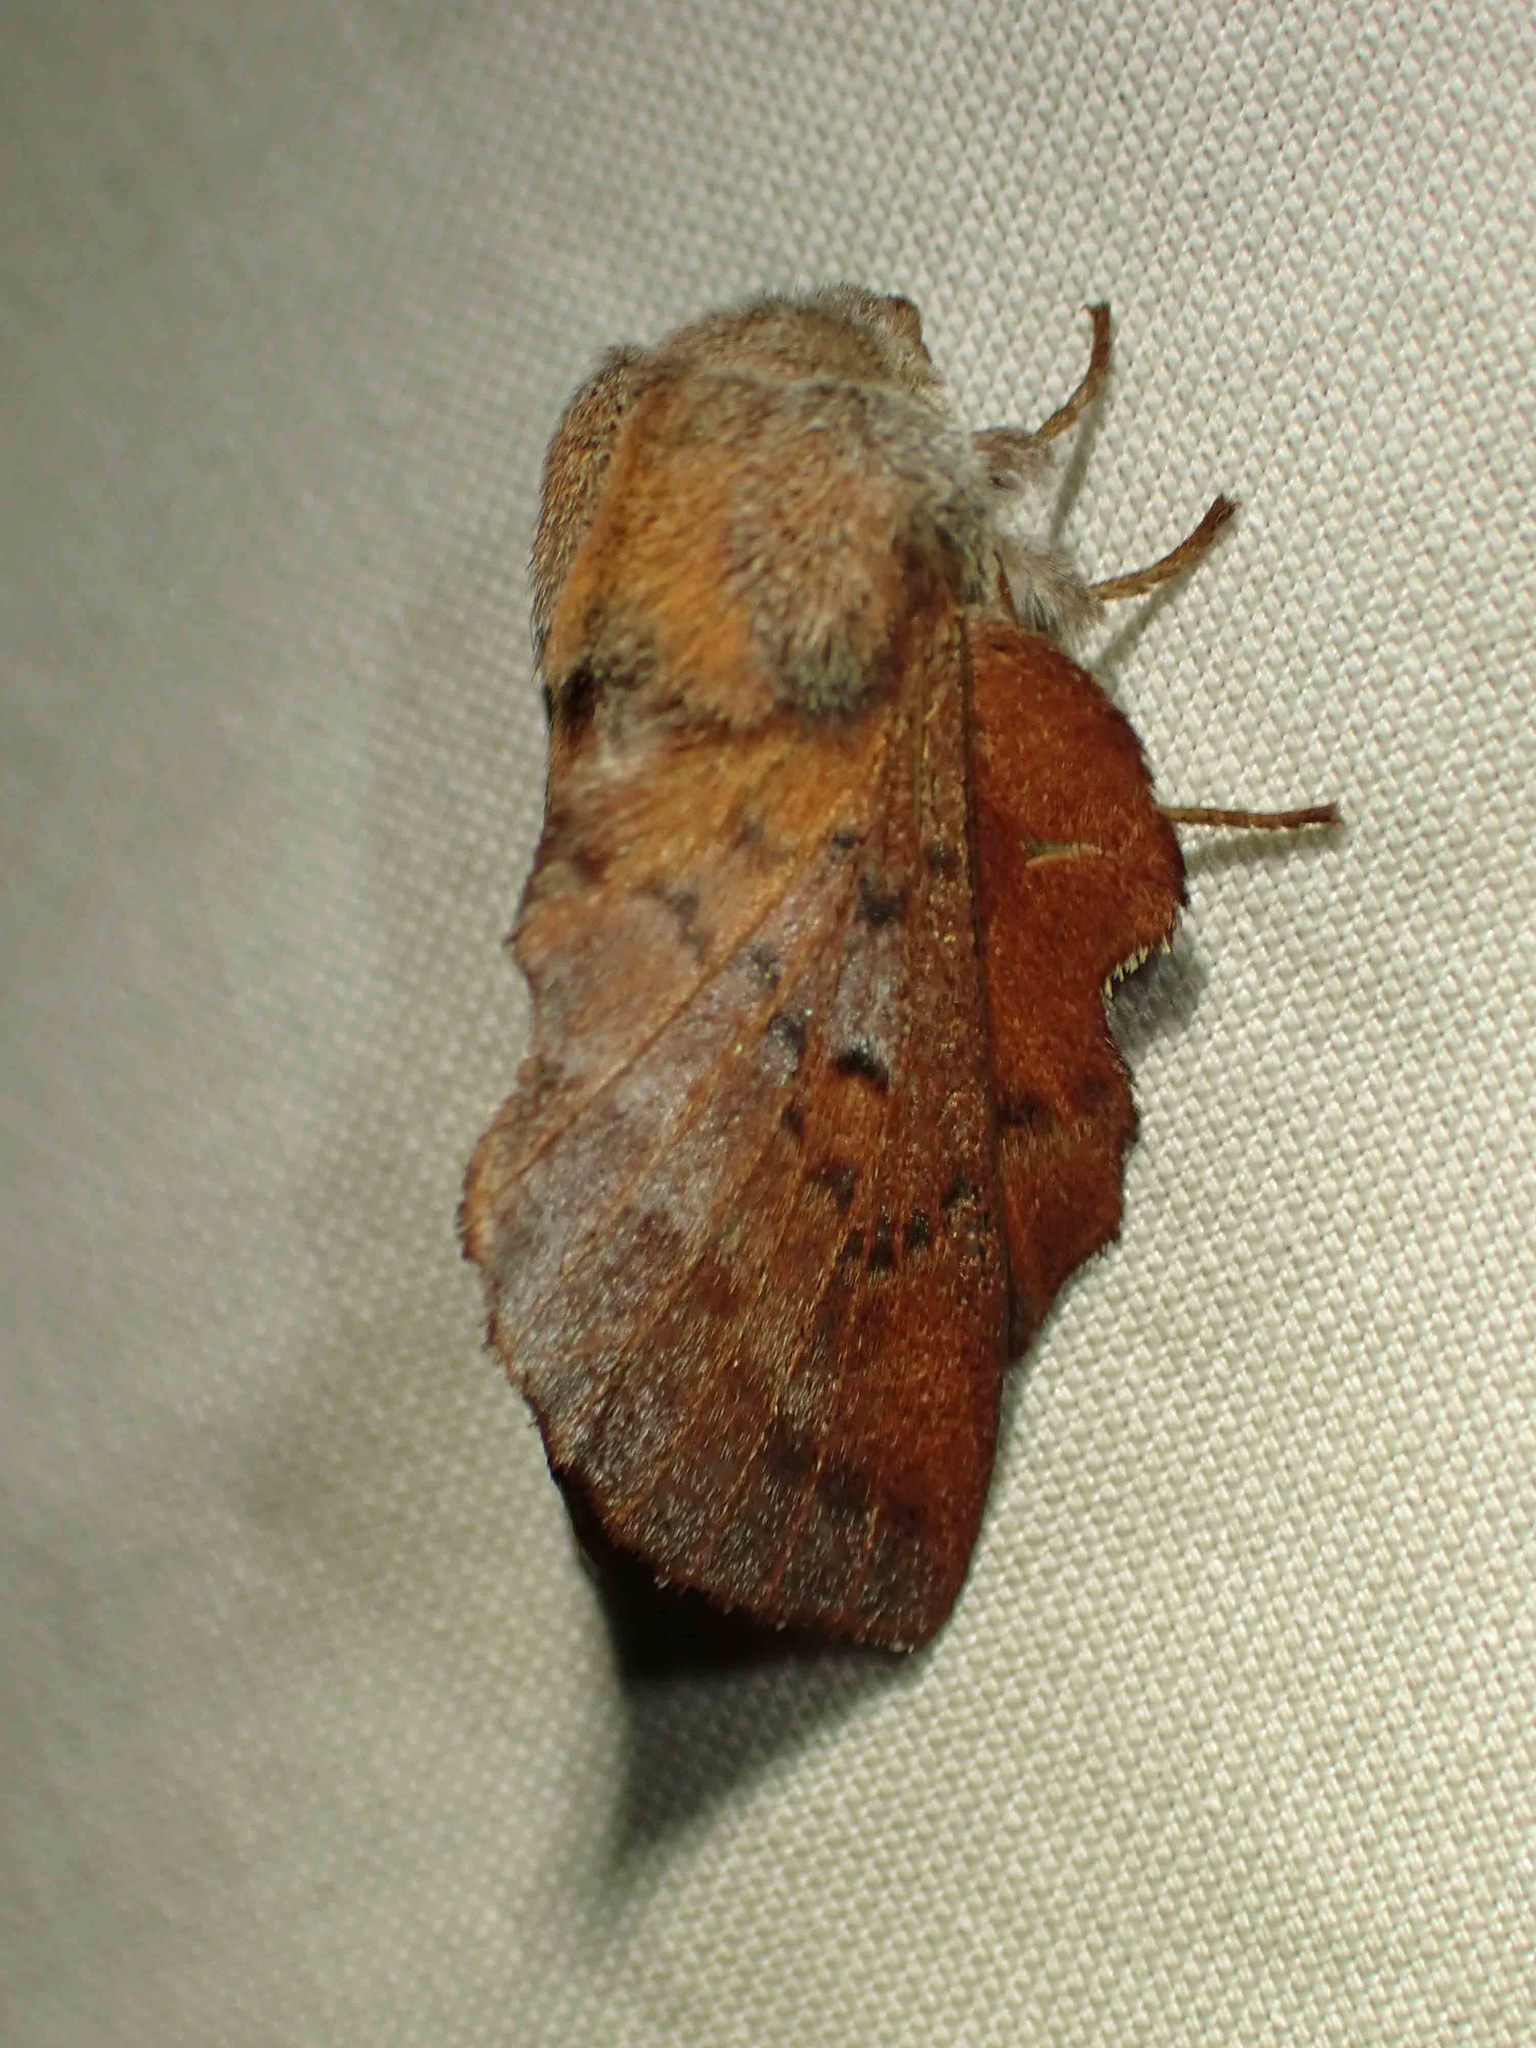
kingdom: Animalia
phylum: Arthropoda
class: Insecta
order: Lepidoptera
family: Lasiocampidae
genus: Phyllodesma
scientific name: Phyllodesma americana
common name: American lappet moth
